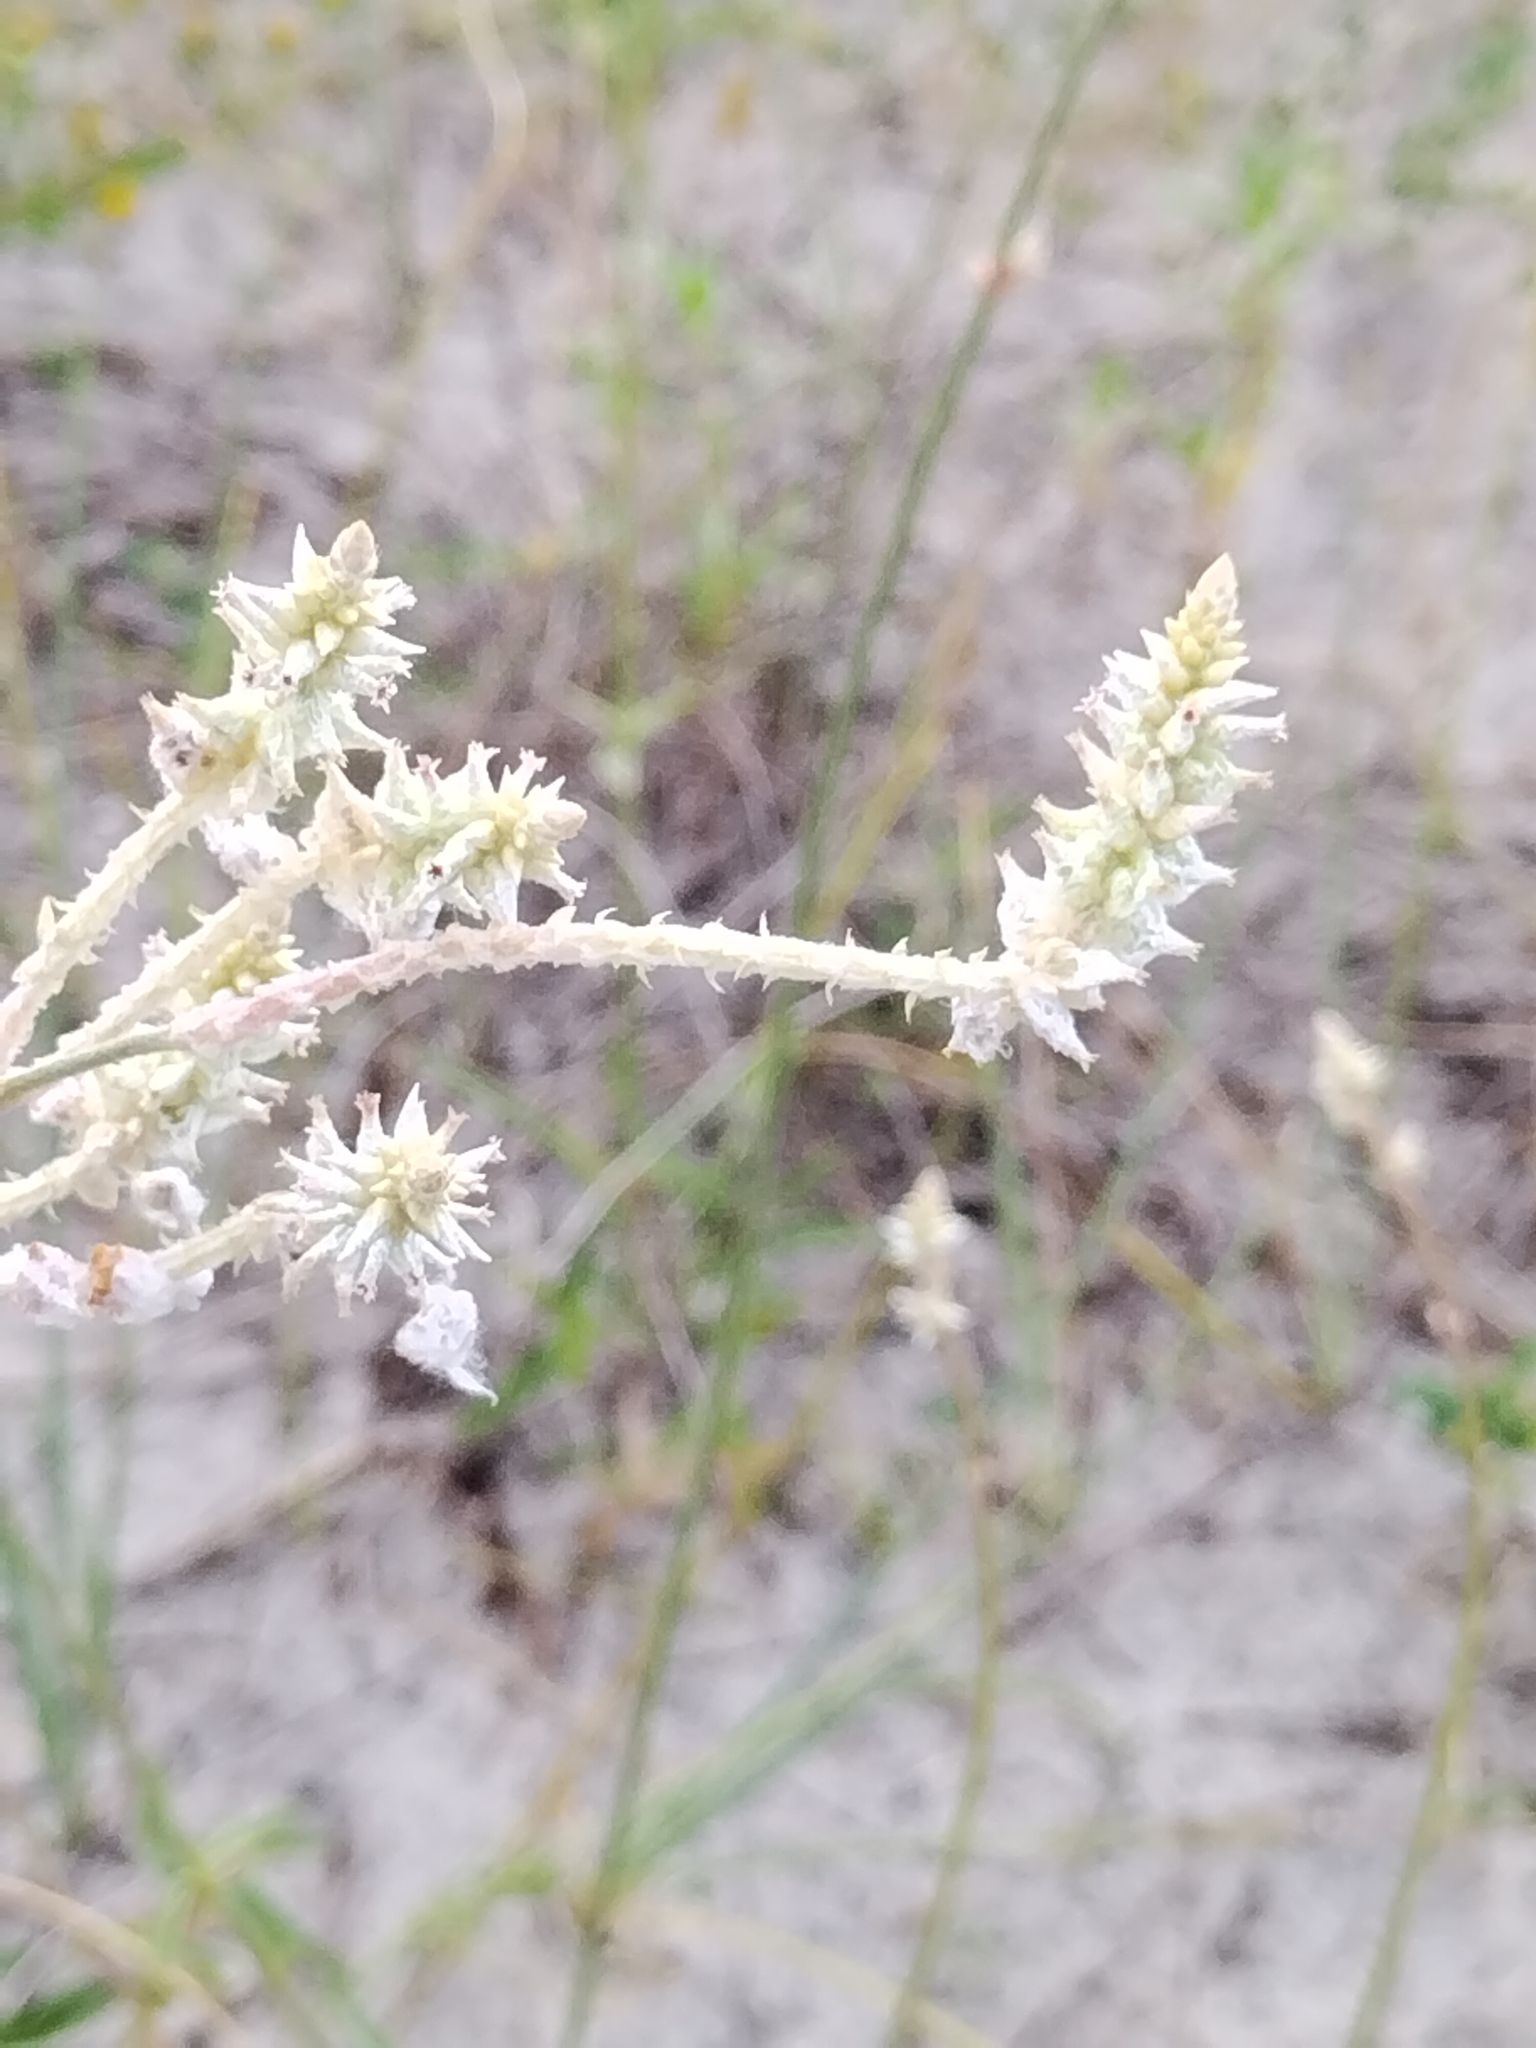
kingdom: Plantae
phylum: Tracheophyta
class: Magnoliopsida
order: Caryophyllales
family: Amaranthaceae
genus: Froelichia
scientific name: Froelichia floridana
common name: Florida snake-cotton
